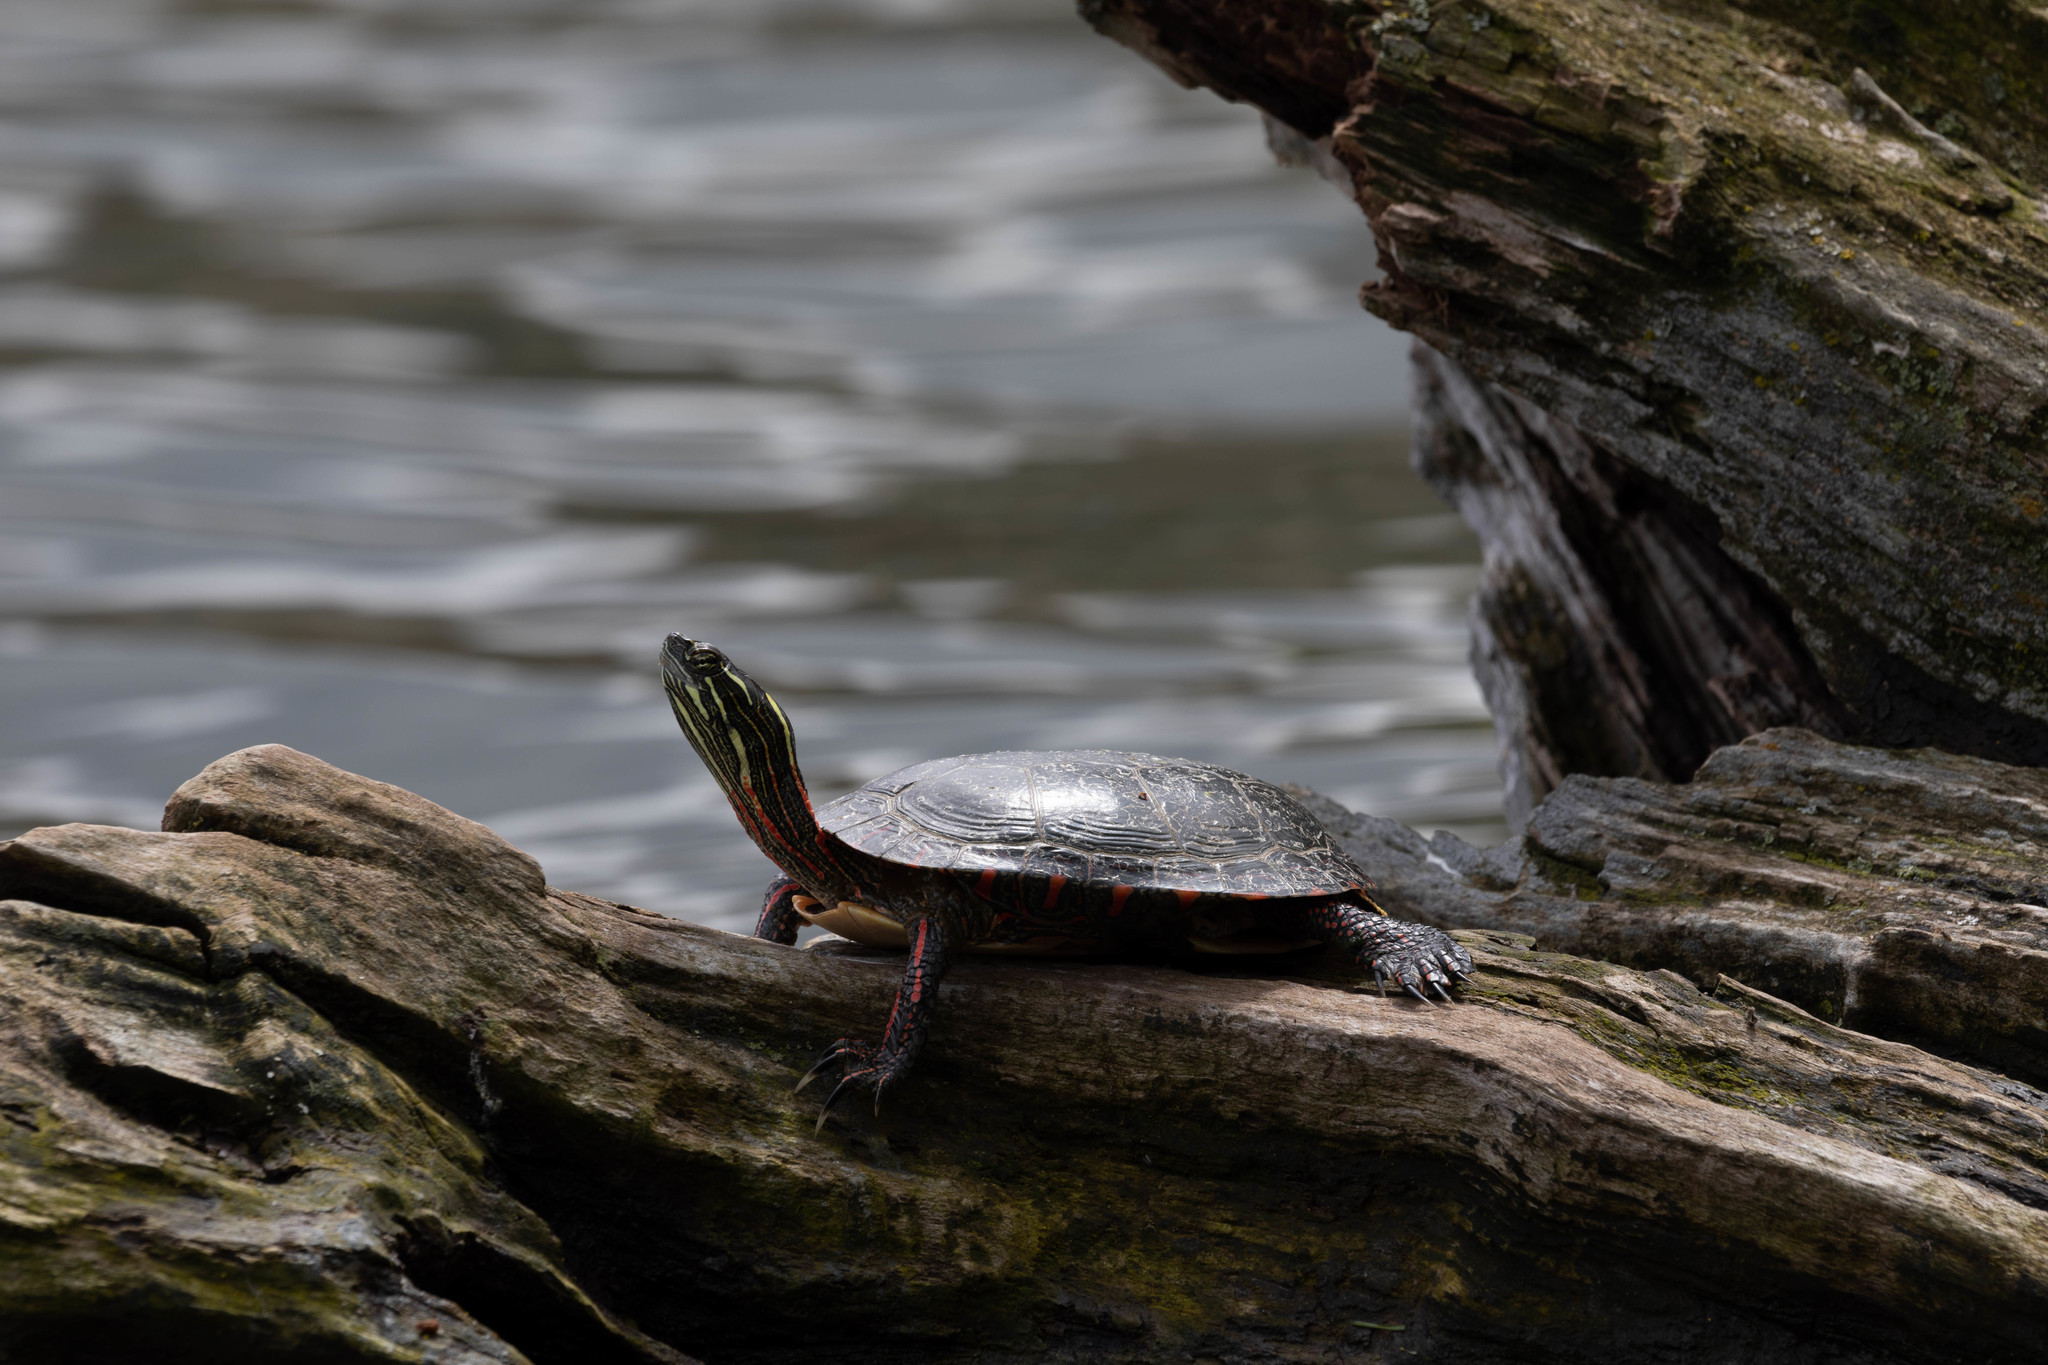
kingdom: Animalia
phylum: Chordata
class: Testudines
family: Emydidae
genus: Chrysemys
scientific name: Chrysemys picta
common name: Painted turtle
